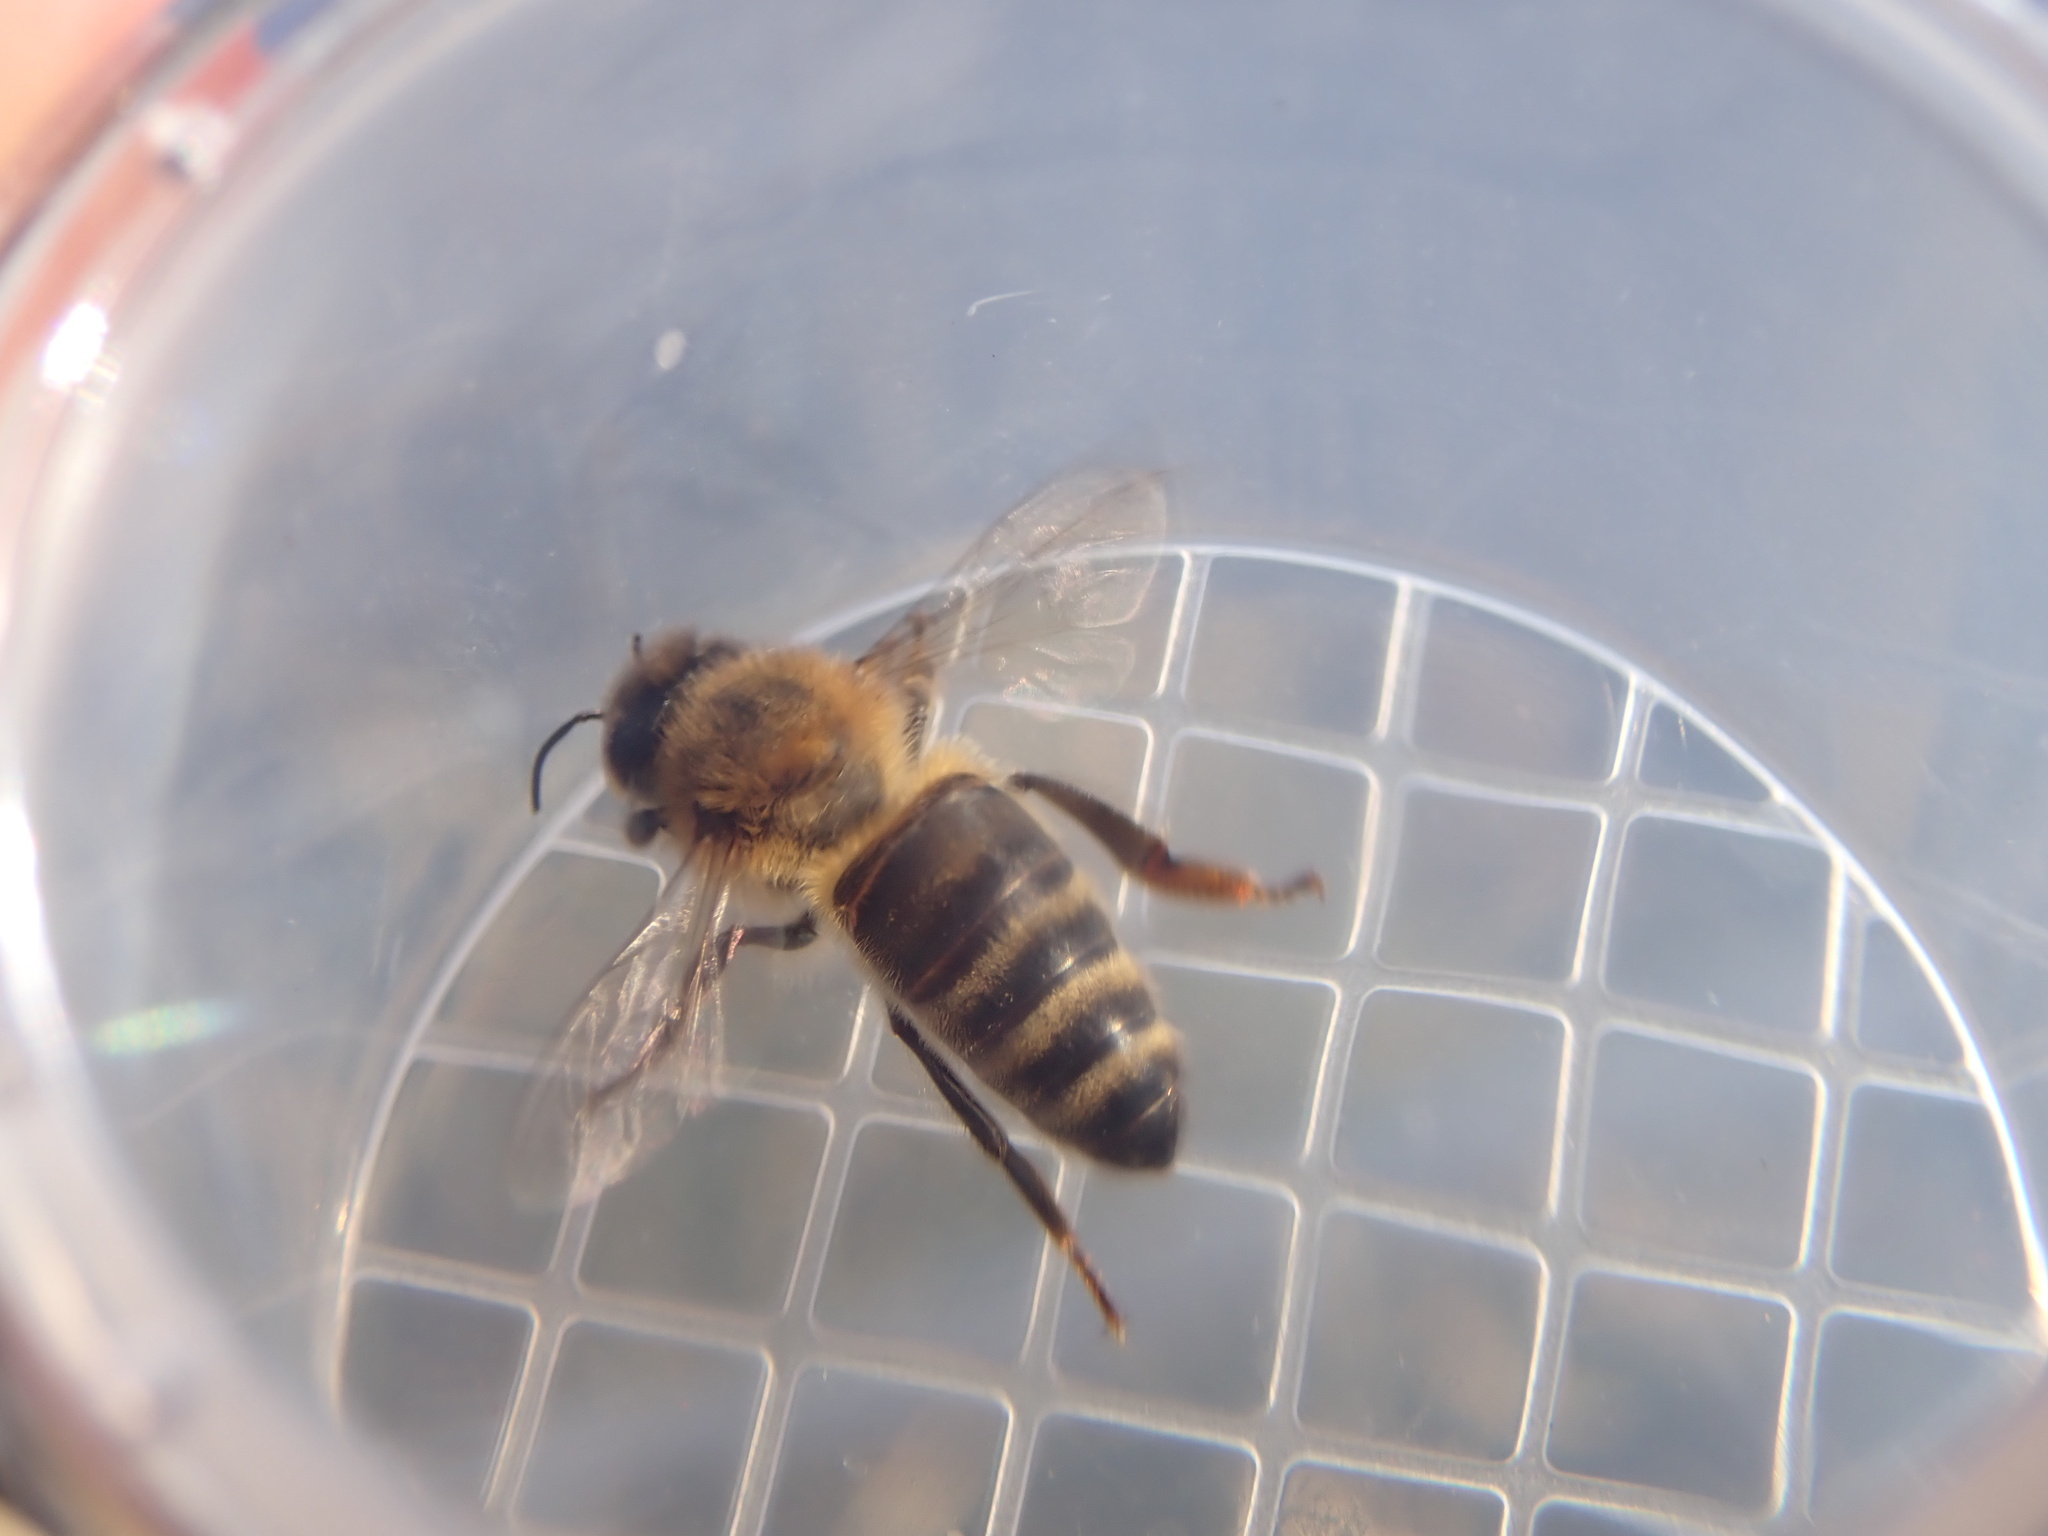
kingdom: Animalia
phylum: Arthropoda
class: Insecta
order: Hymenoptera
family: Apidae
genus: Apis
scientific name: Apis mellifera
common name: Honey bee
